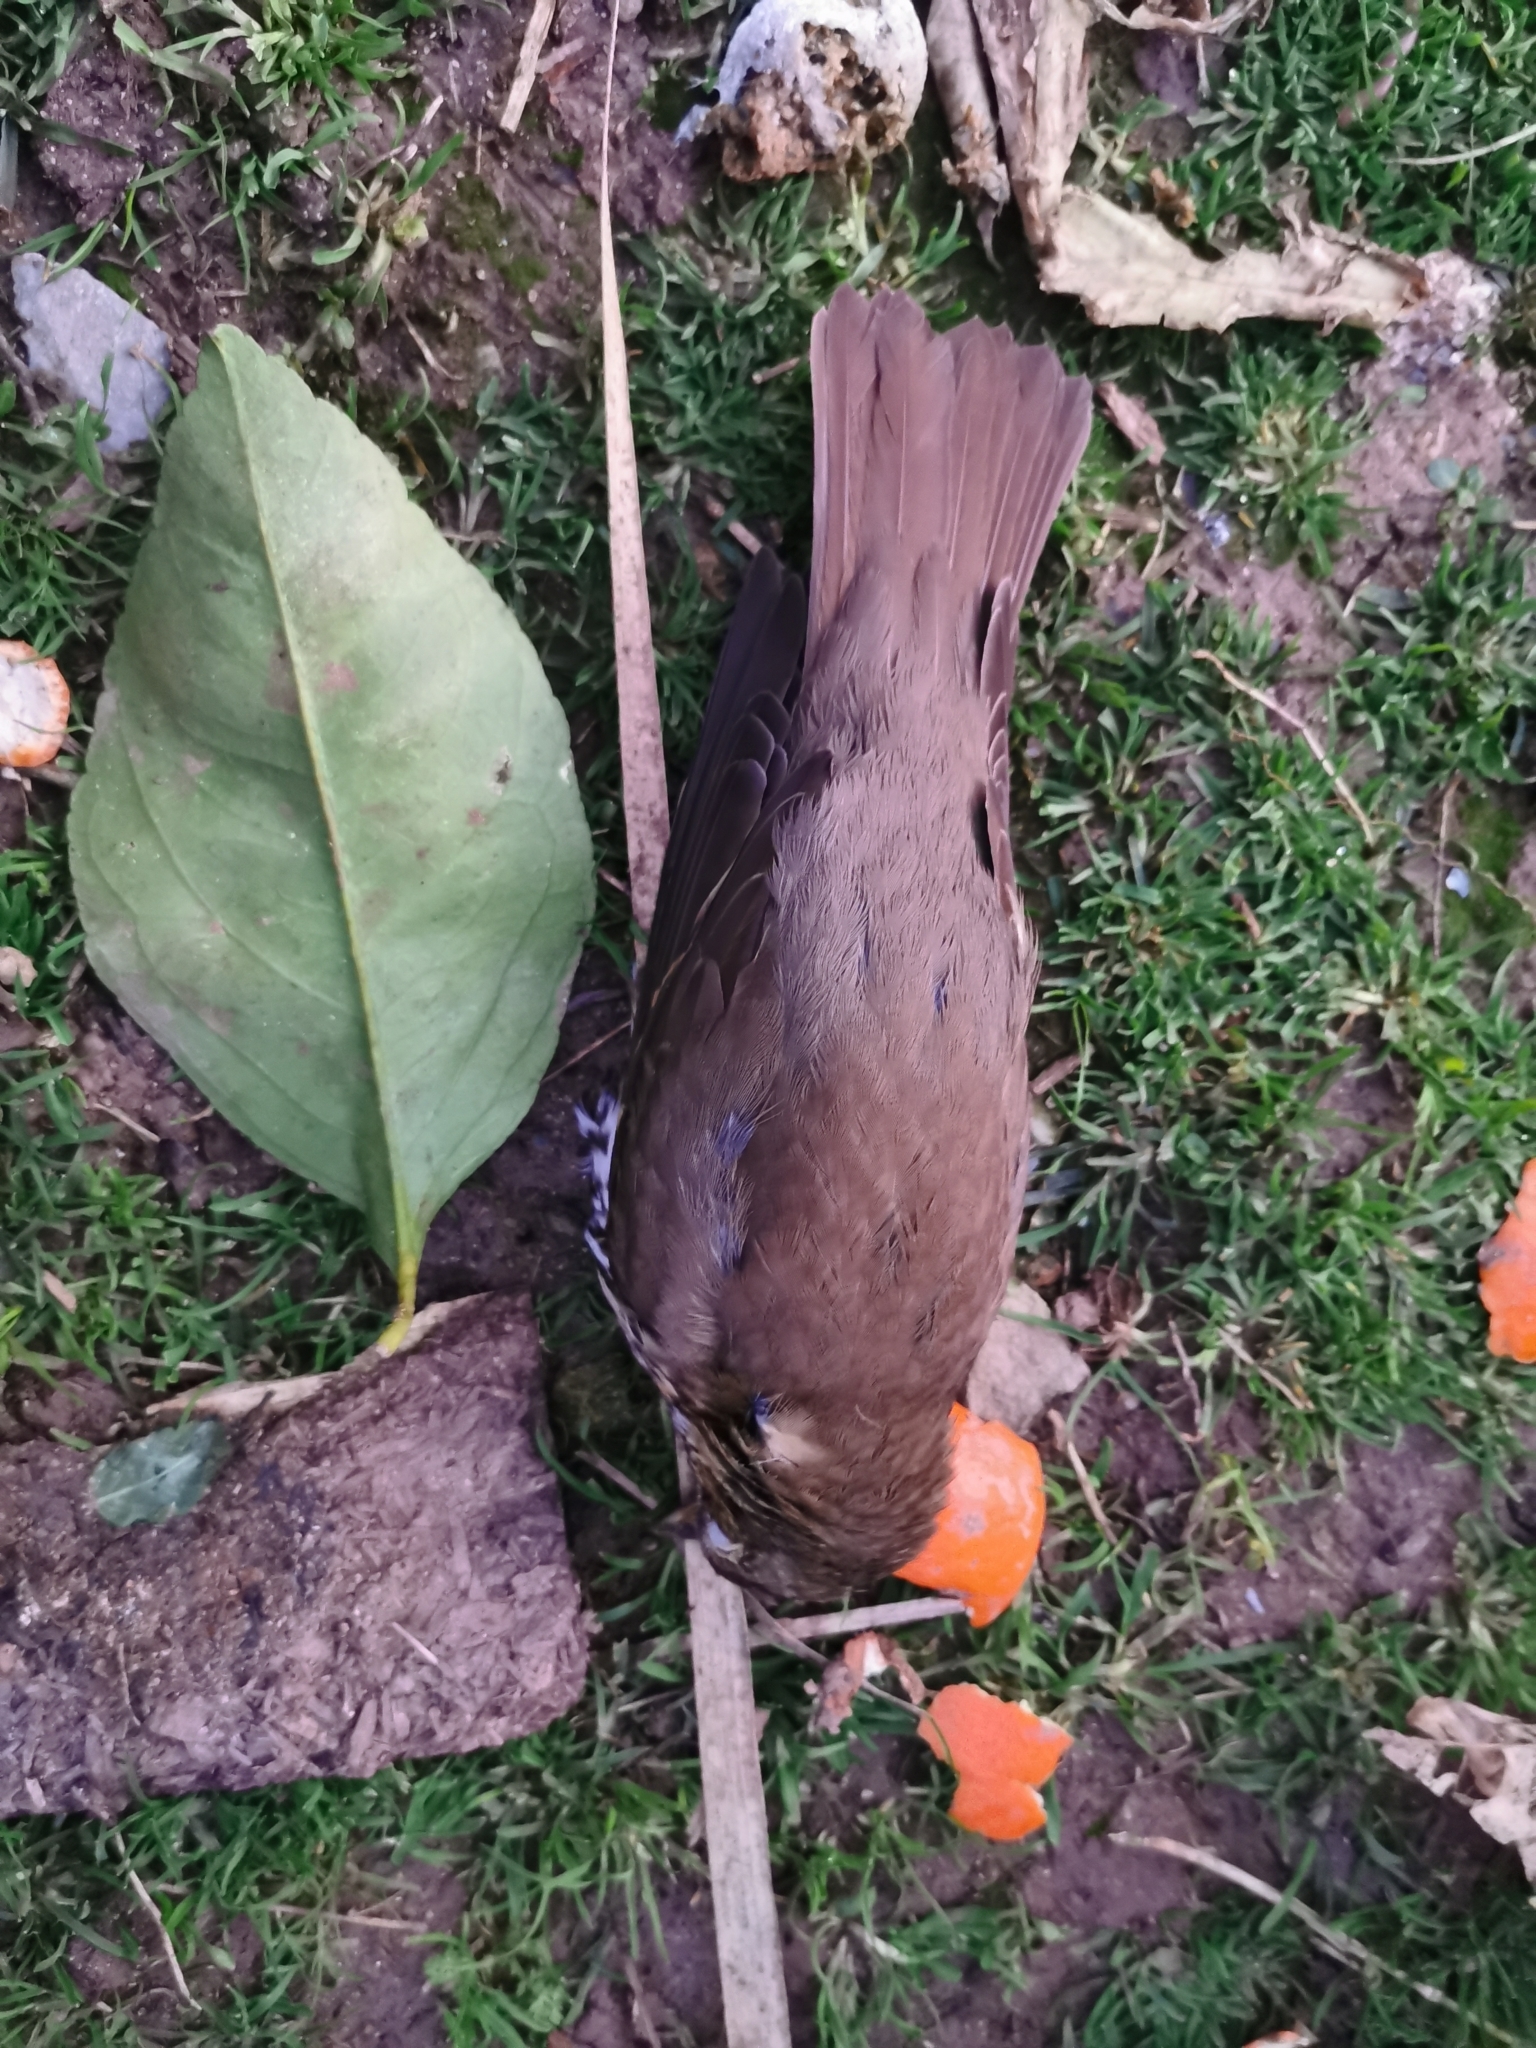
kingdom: Animalia
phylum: Chordata
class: Aves
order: Passeriformes
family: Turdidae
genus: Turdus
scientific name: Turdus philomelos
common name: Song thrush
